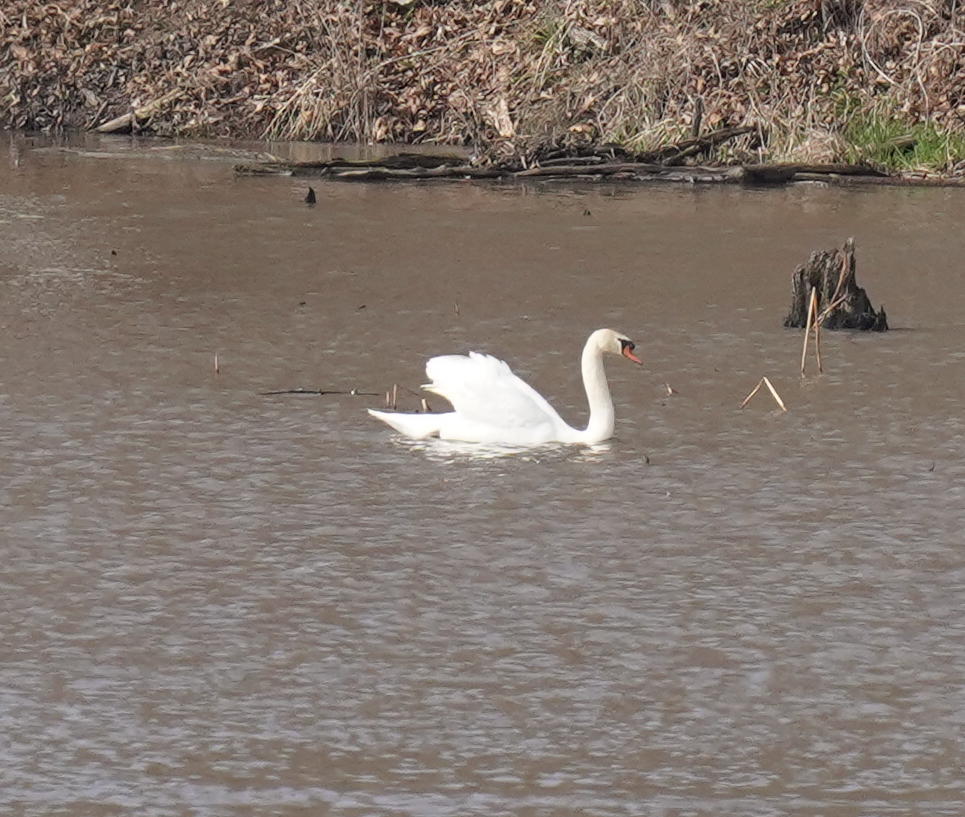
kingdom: Animalia
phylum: Chordata
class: Aves
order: Anseriformes
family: Anatidae
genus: Cygnus
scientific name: Cygnus olor
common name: Mute swan
